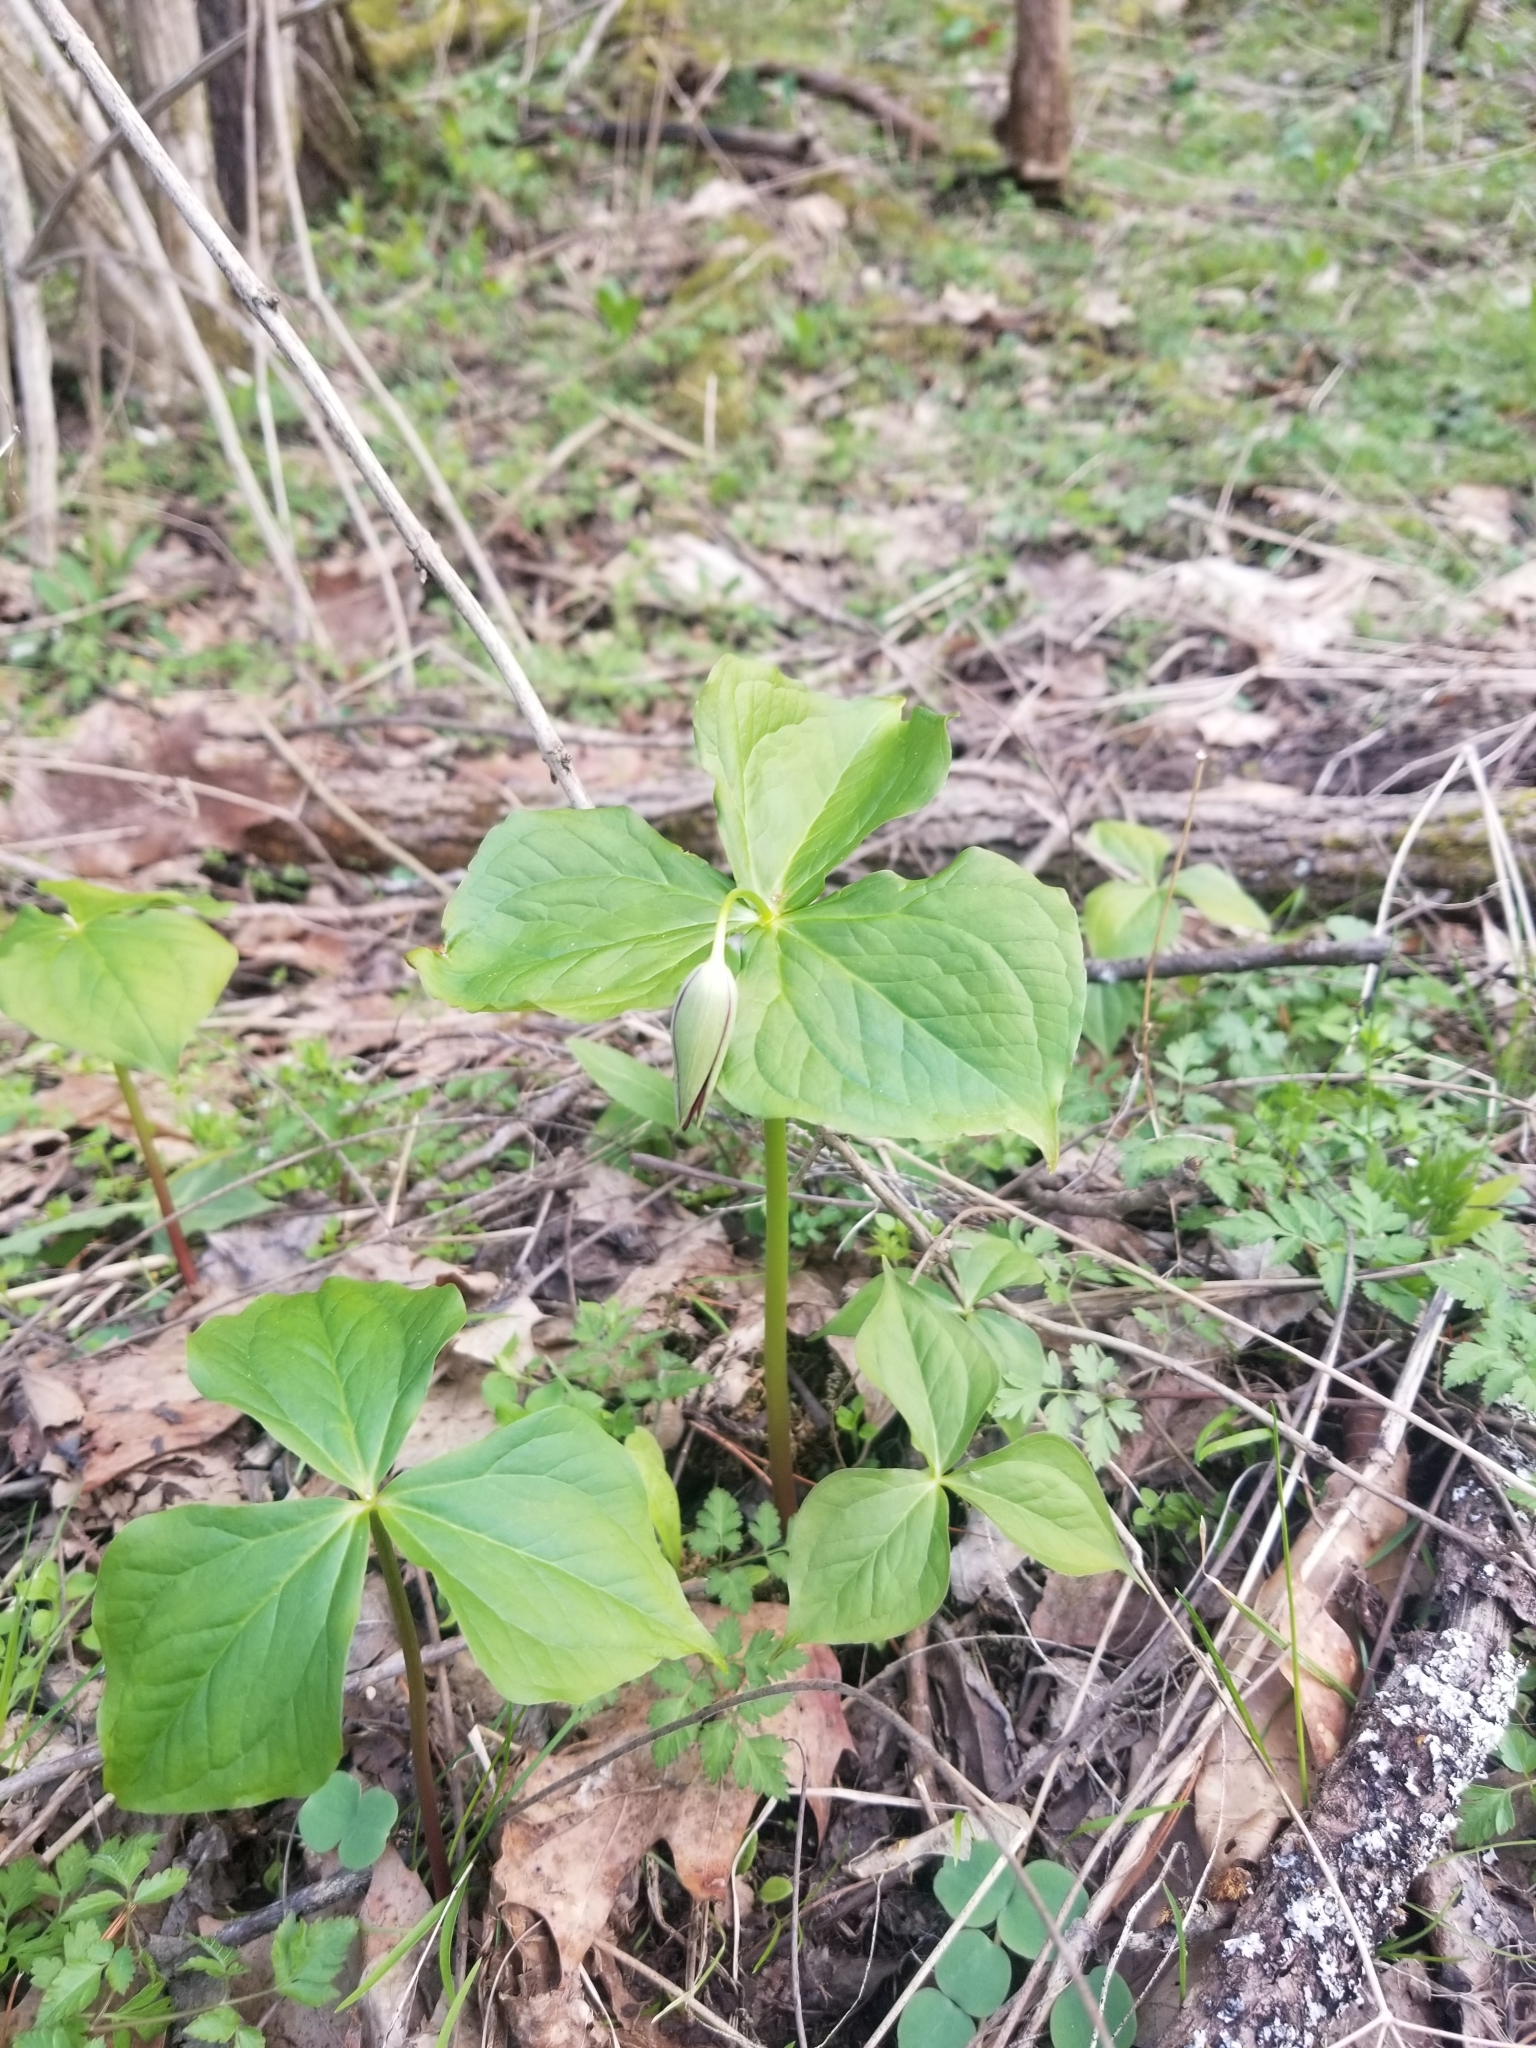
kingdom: Plantae
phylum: Tracheophyta
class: Liliopsida
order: Liliales
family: Melanthiaceae
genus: Trillium
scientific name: Trillium erectum
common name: Purple trillium
